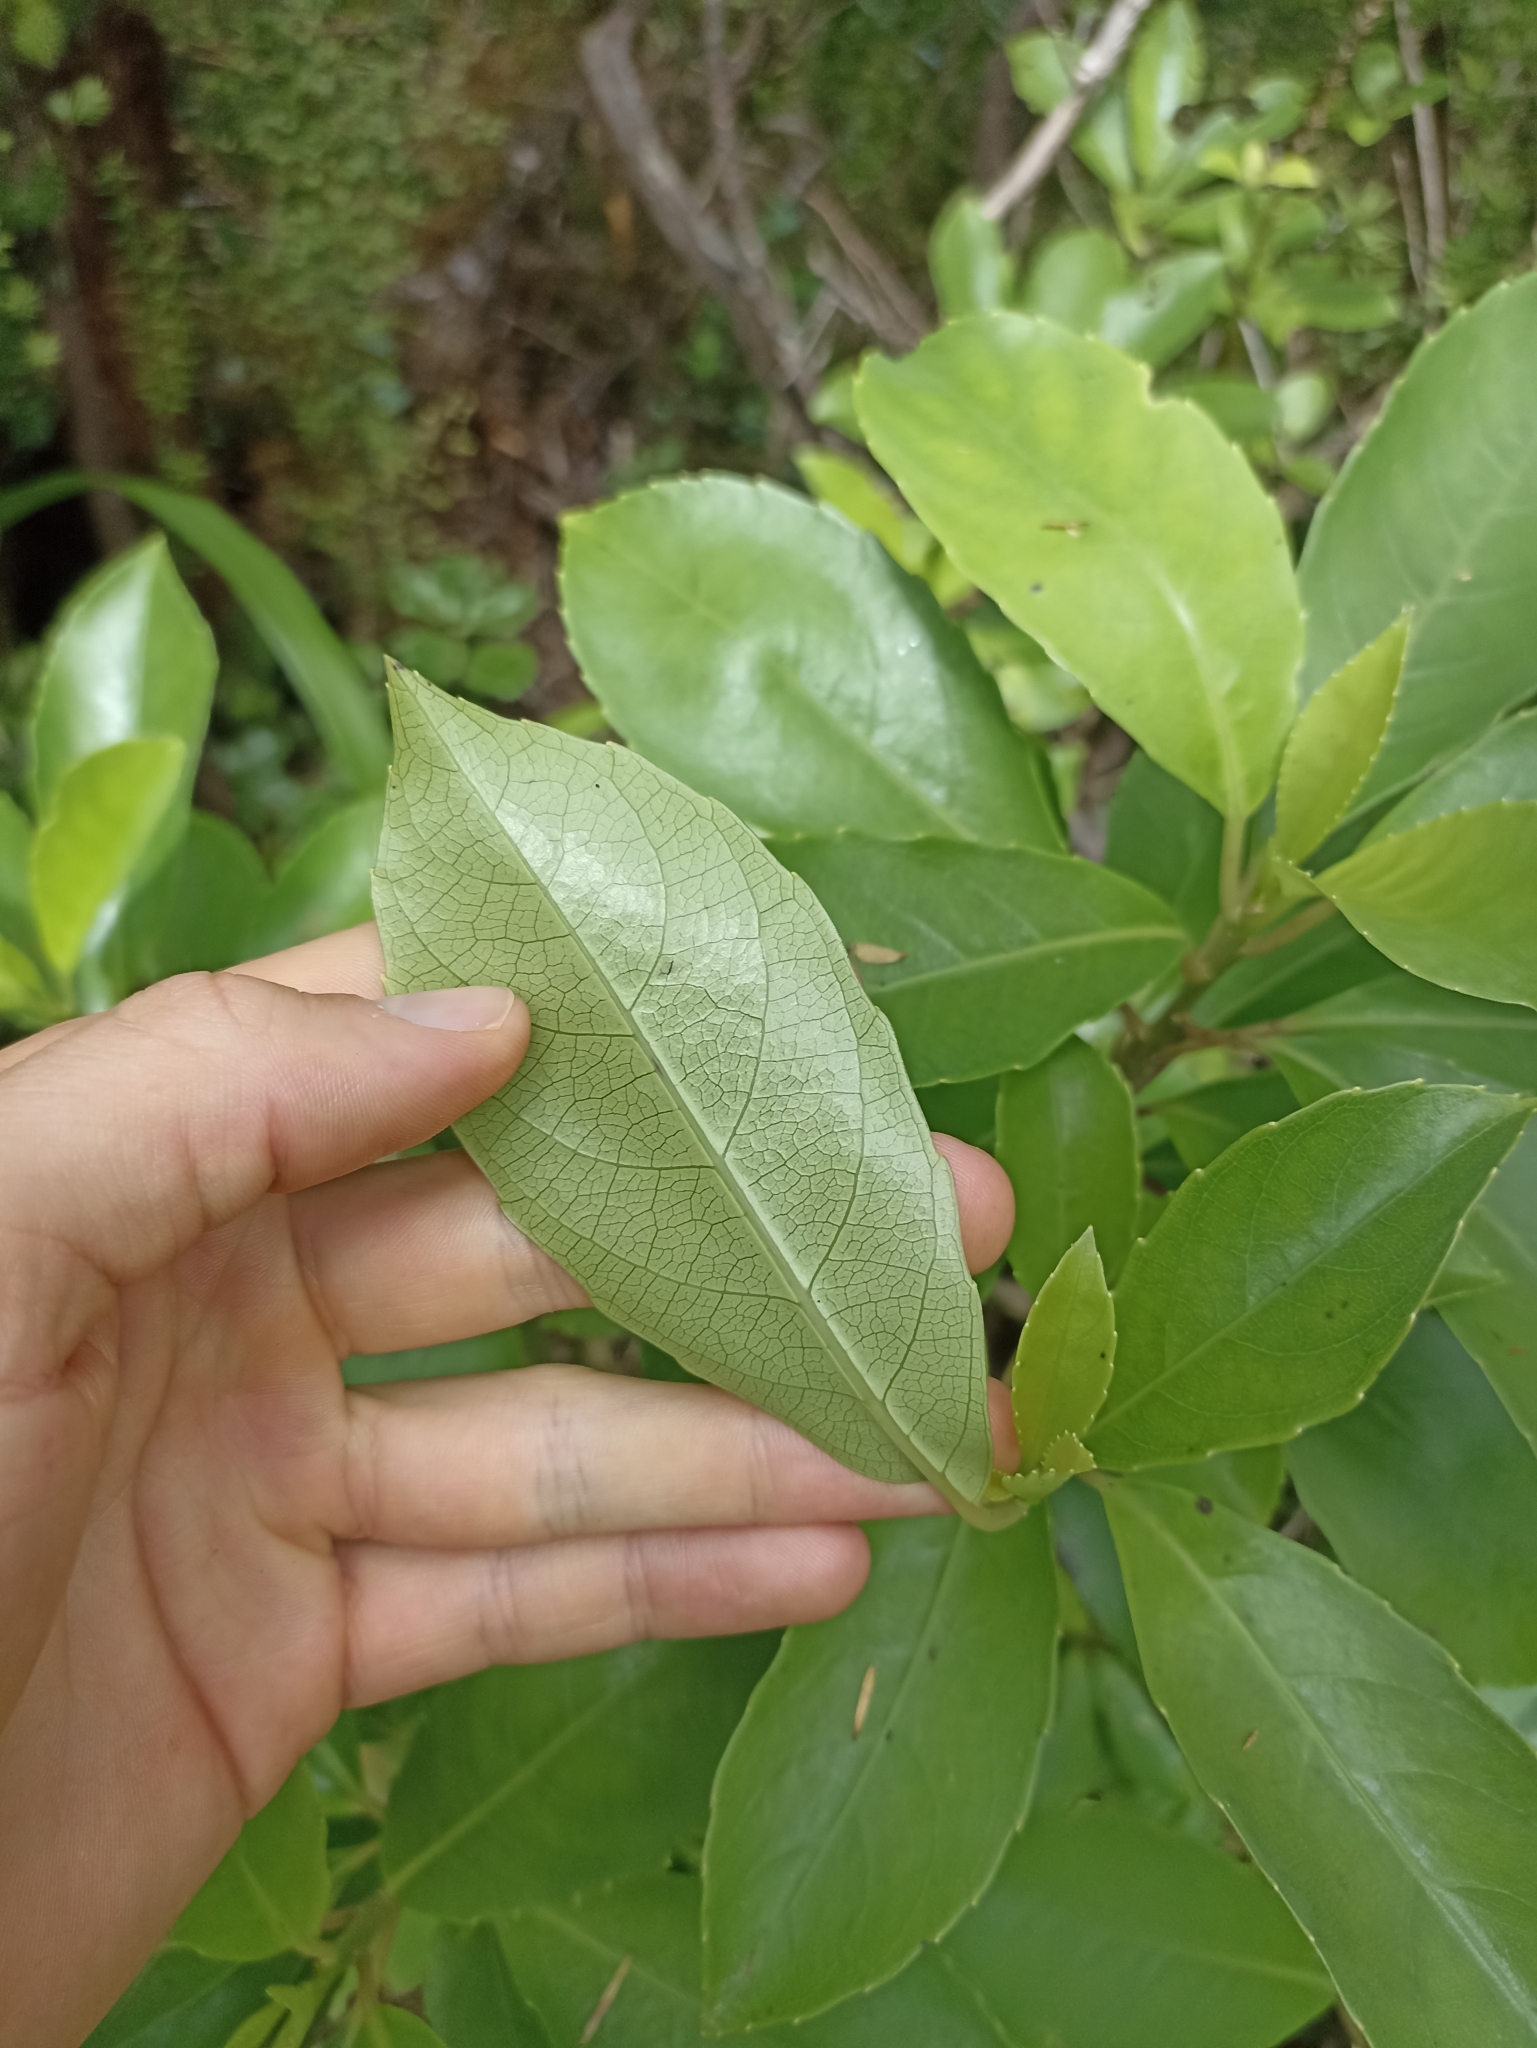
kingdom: Plantae
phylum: Tracheophyta
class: Magnoliopsida
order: Malpighiales
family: Violaceae
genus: Melicytus
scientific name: Melicytus macrophyllus
